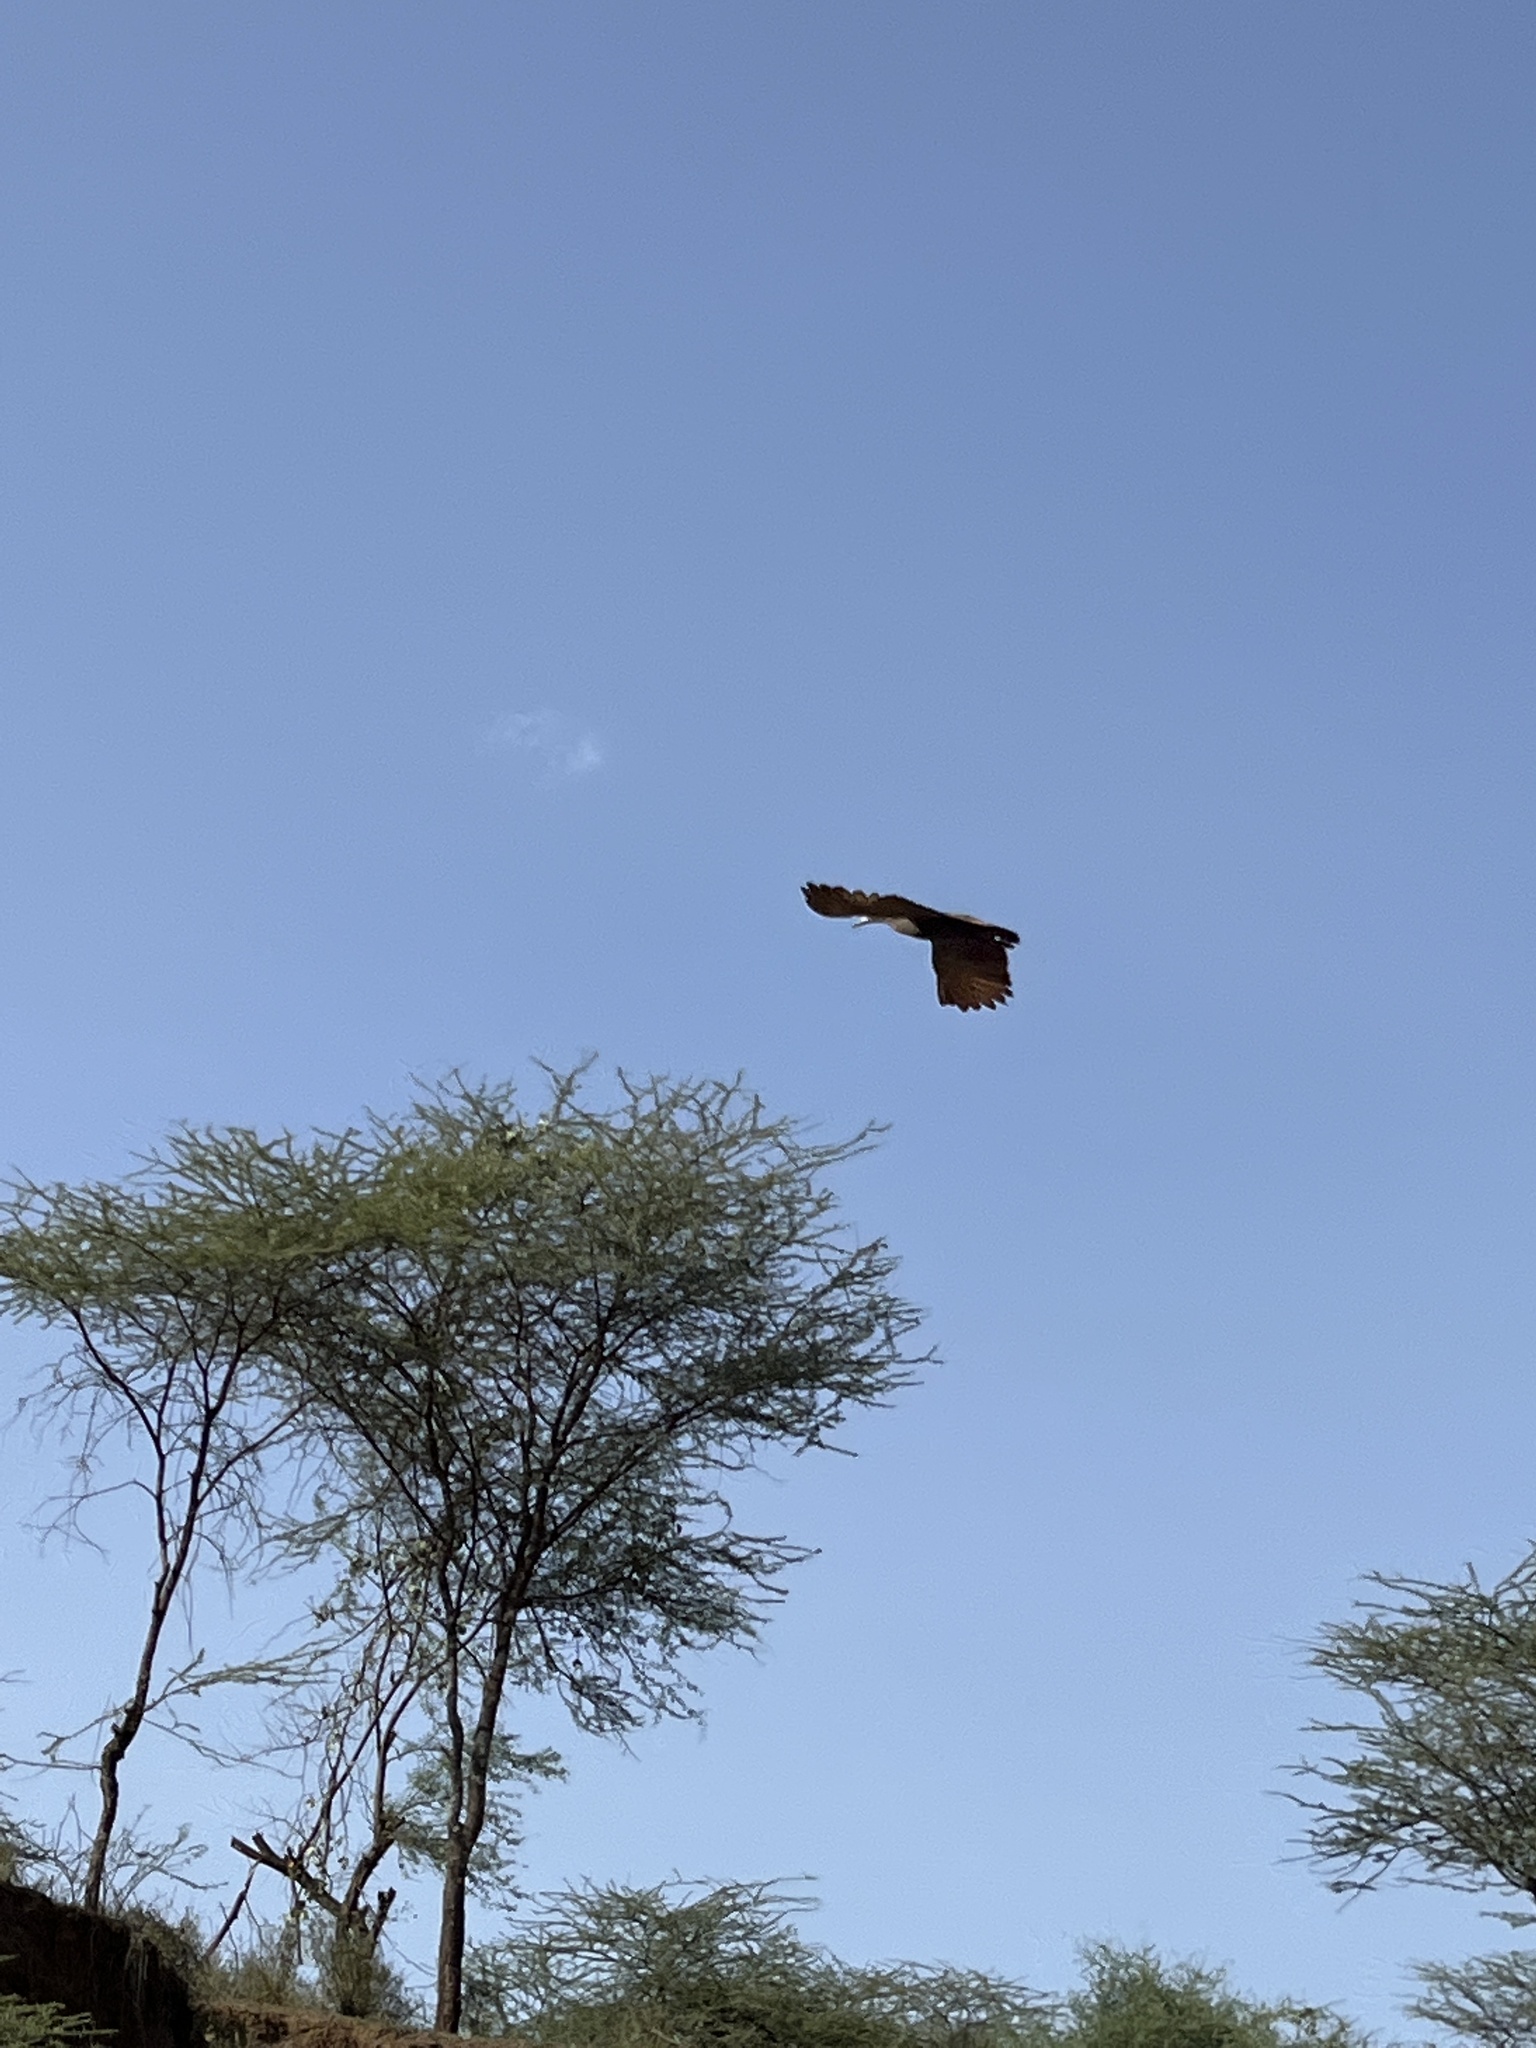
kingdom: Animalia
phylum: Chordata
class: Aves
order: Pelecaniformes
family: Scopidae
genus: Scopus
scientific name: Scopus umbretta
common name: Hamerkop
